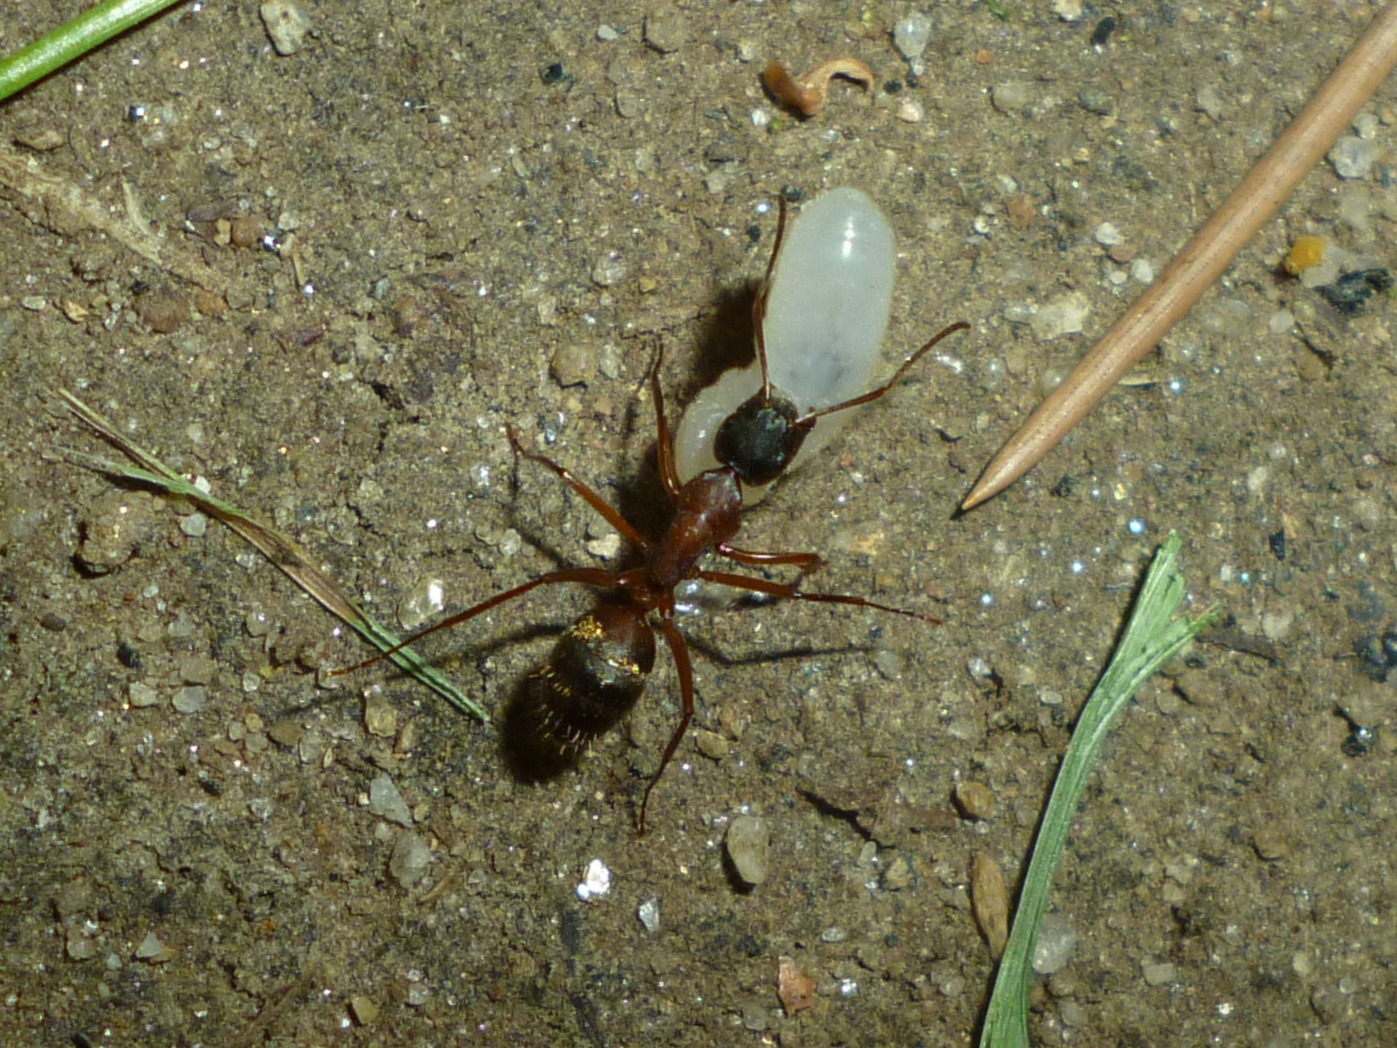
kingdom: Animalia
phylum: Arthropoda
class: Insecta
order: Hymenoptera
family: Formicidae
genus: Camponotus
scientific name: Camponotus chromaiodes
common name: Red carpenter ant
